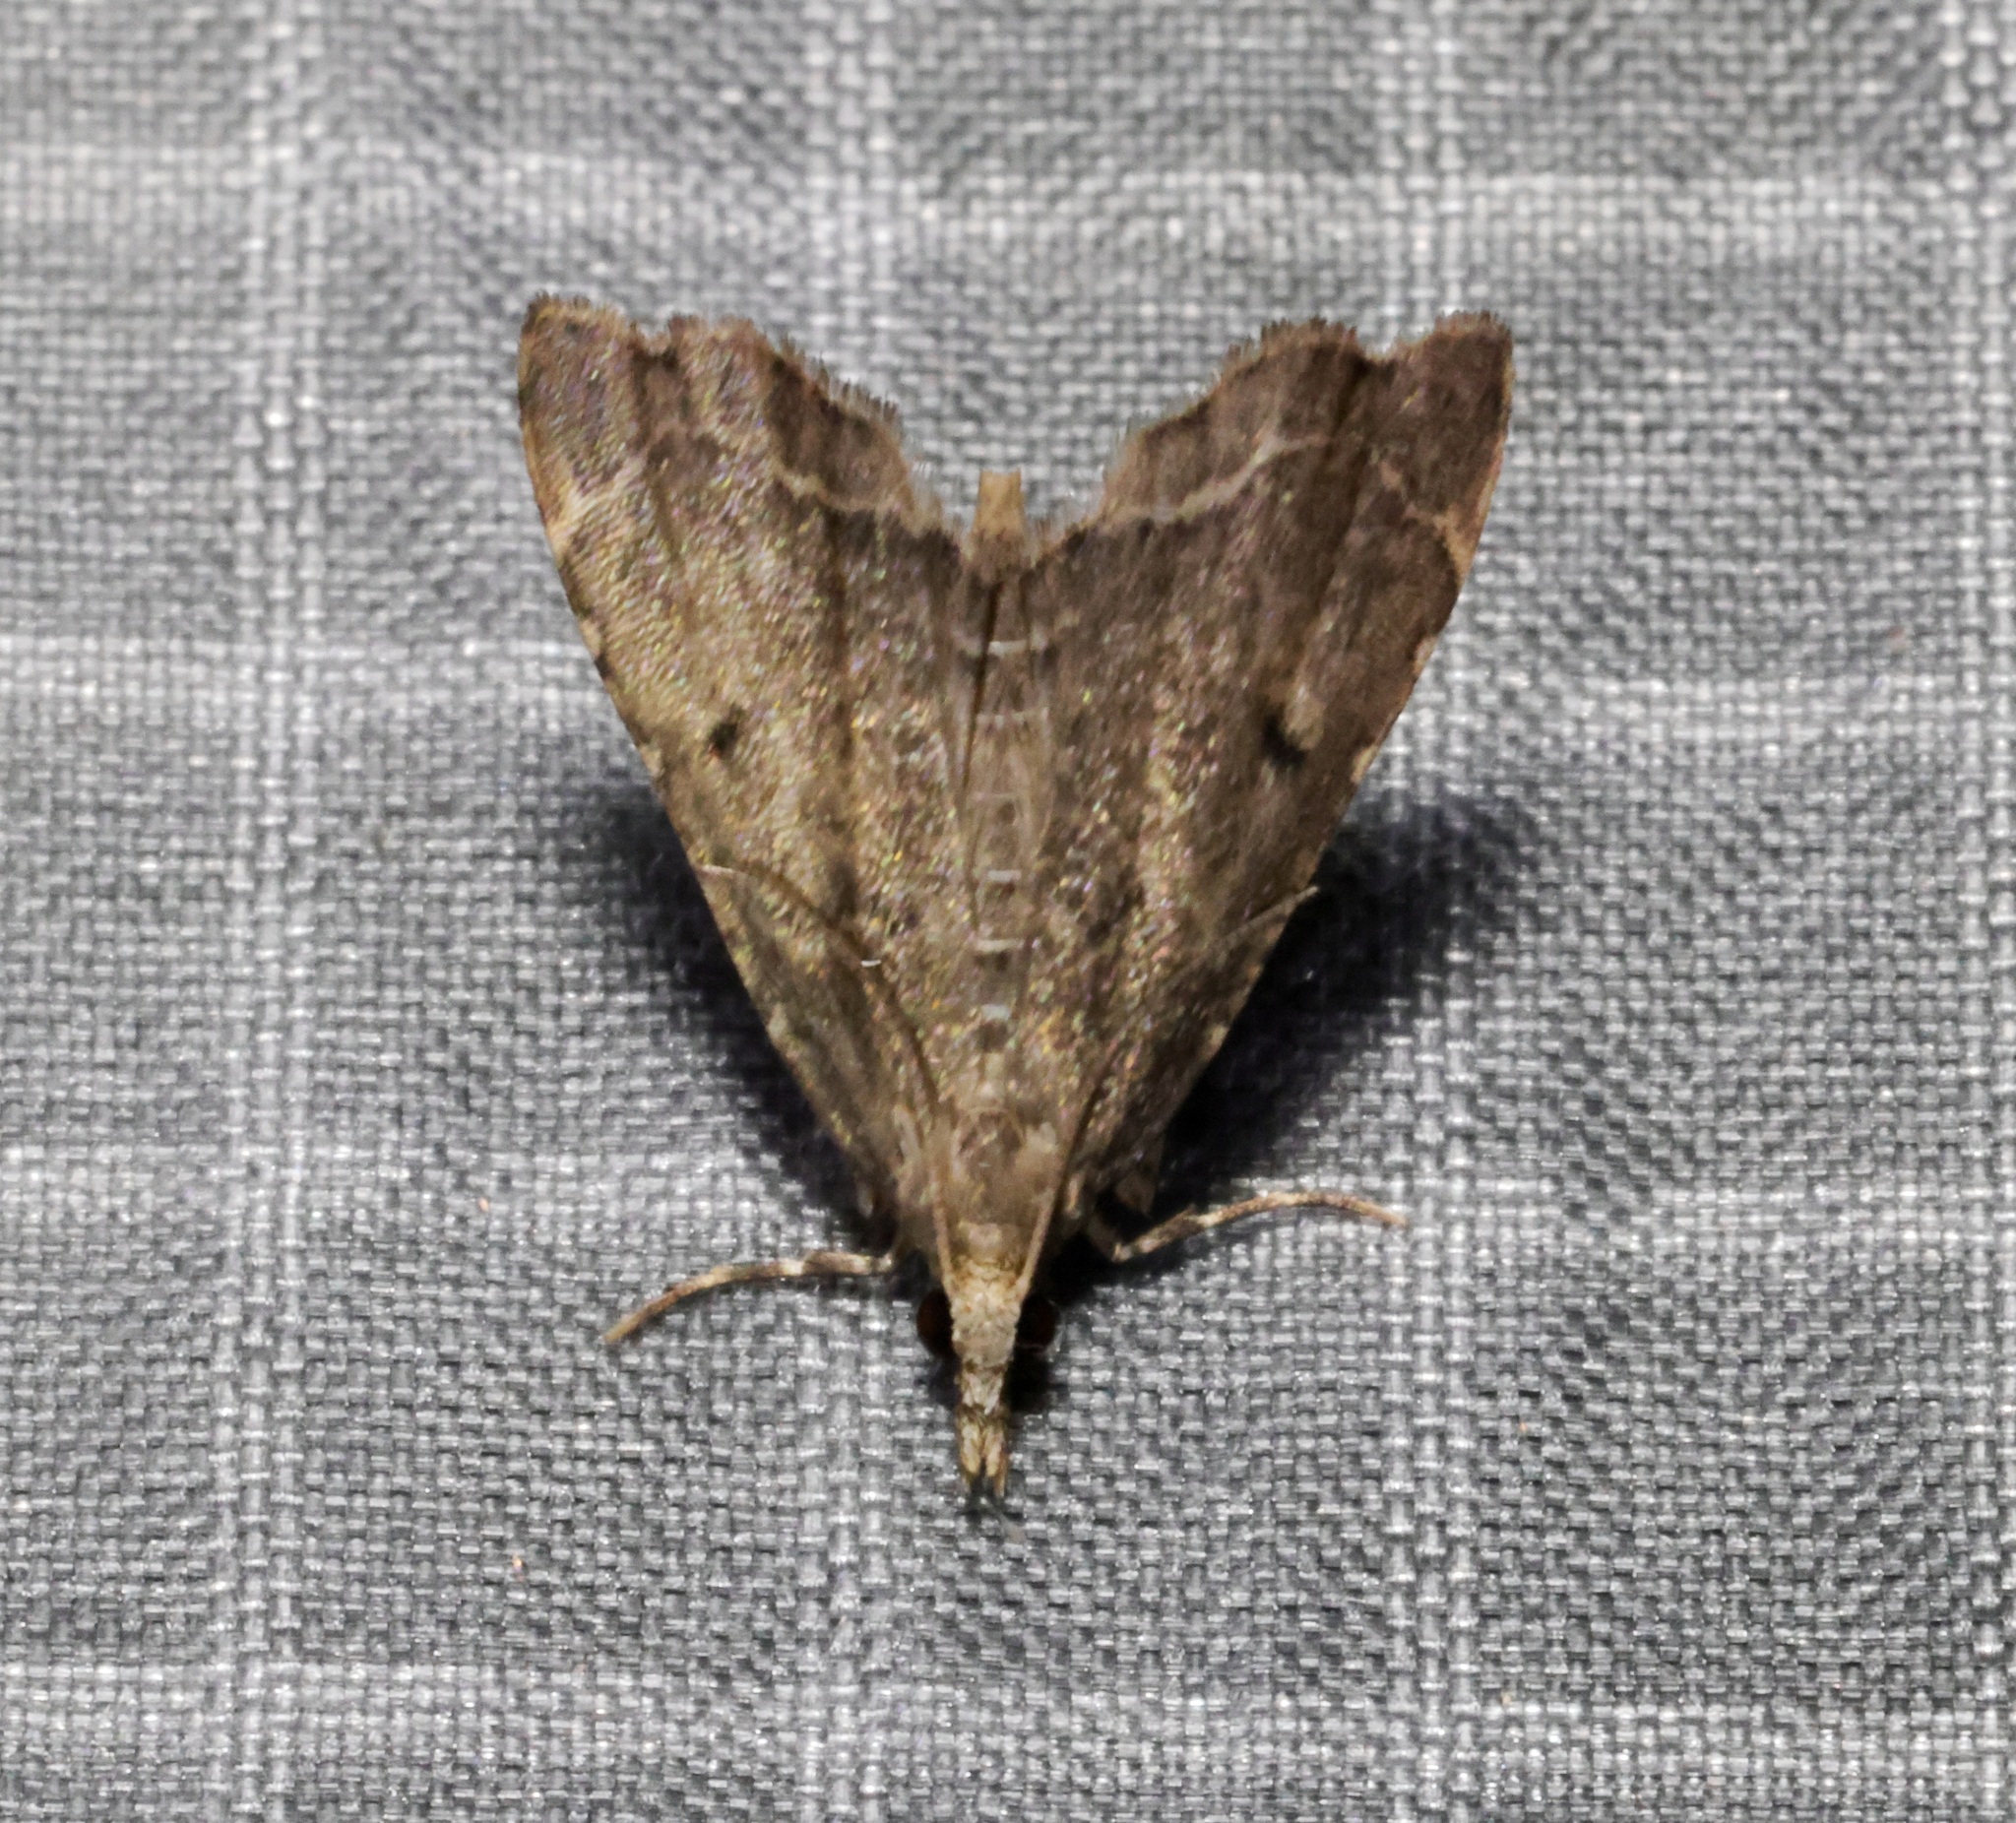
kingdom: Animalia
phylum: Arthropoda
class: Insecta
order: Lepidoptera
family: Crambidae
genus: Diplopseustis
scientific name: Diplopseustis perieresalis
